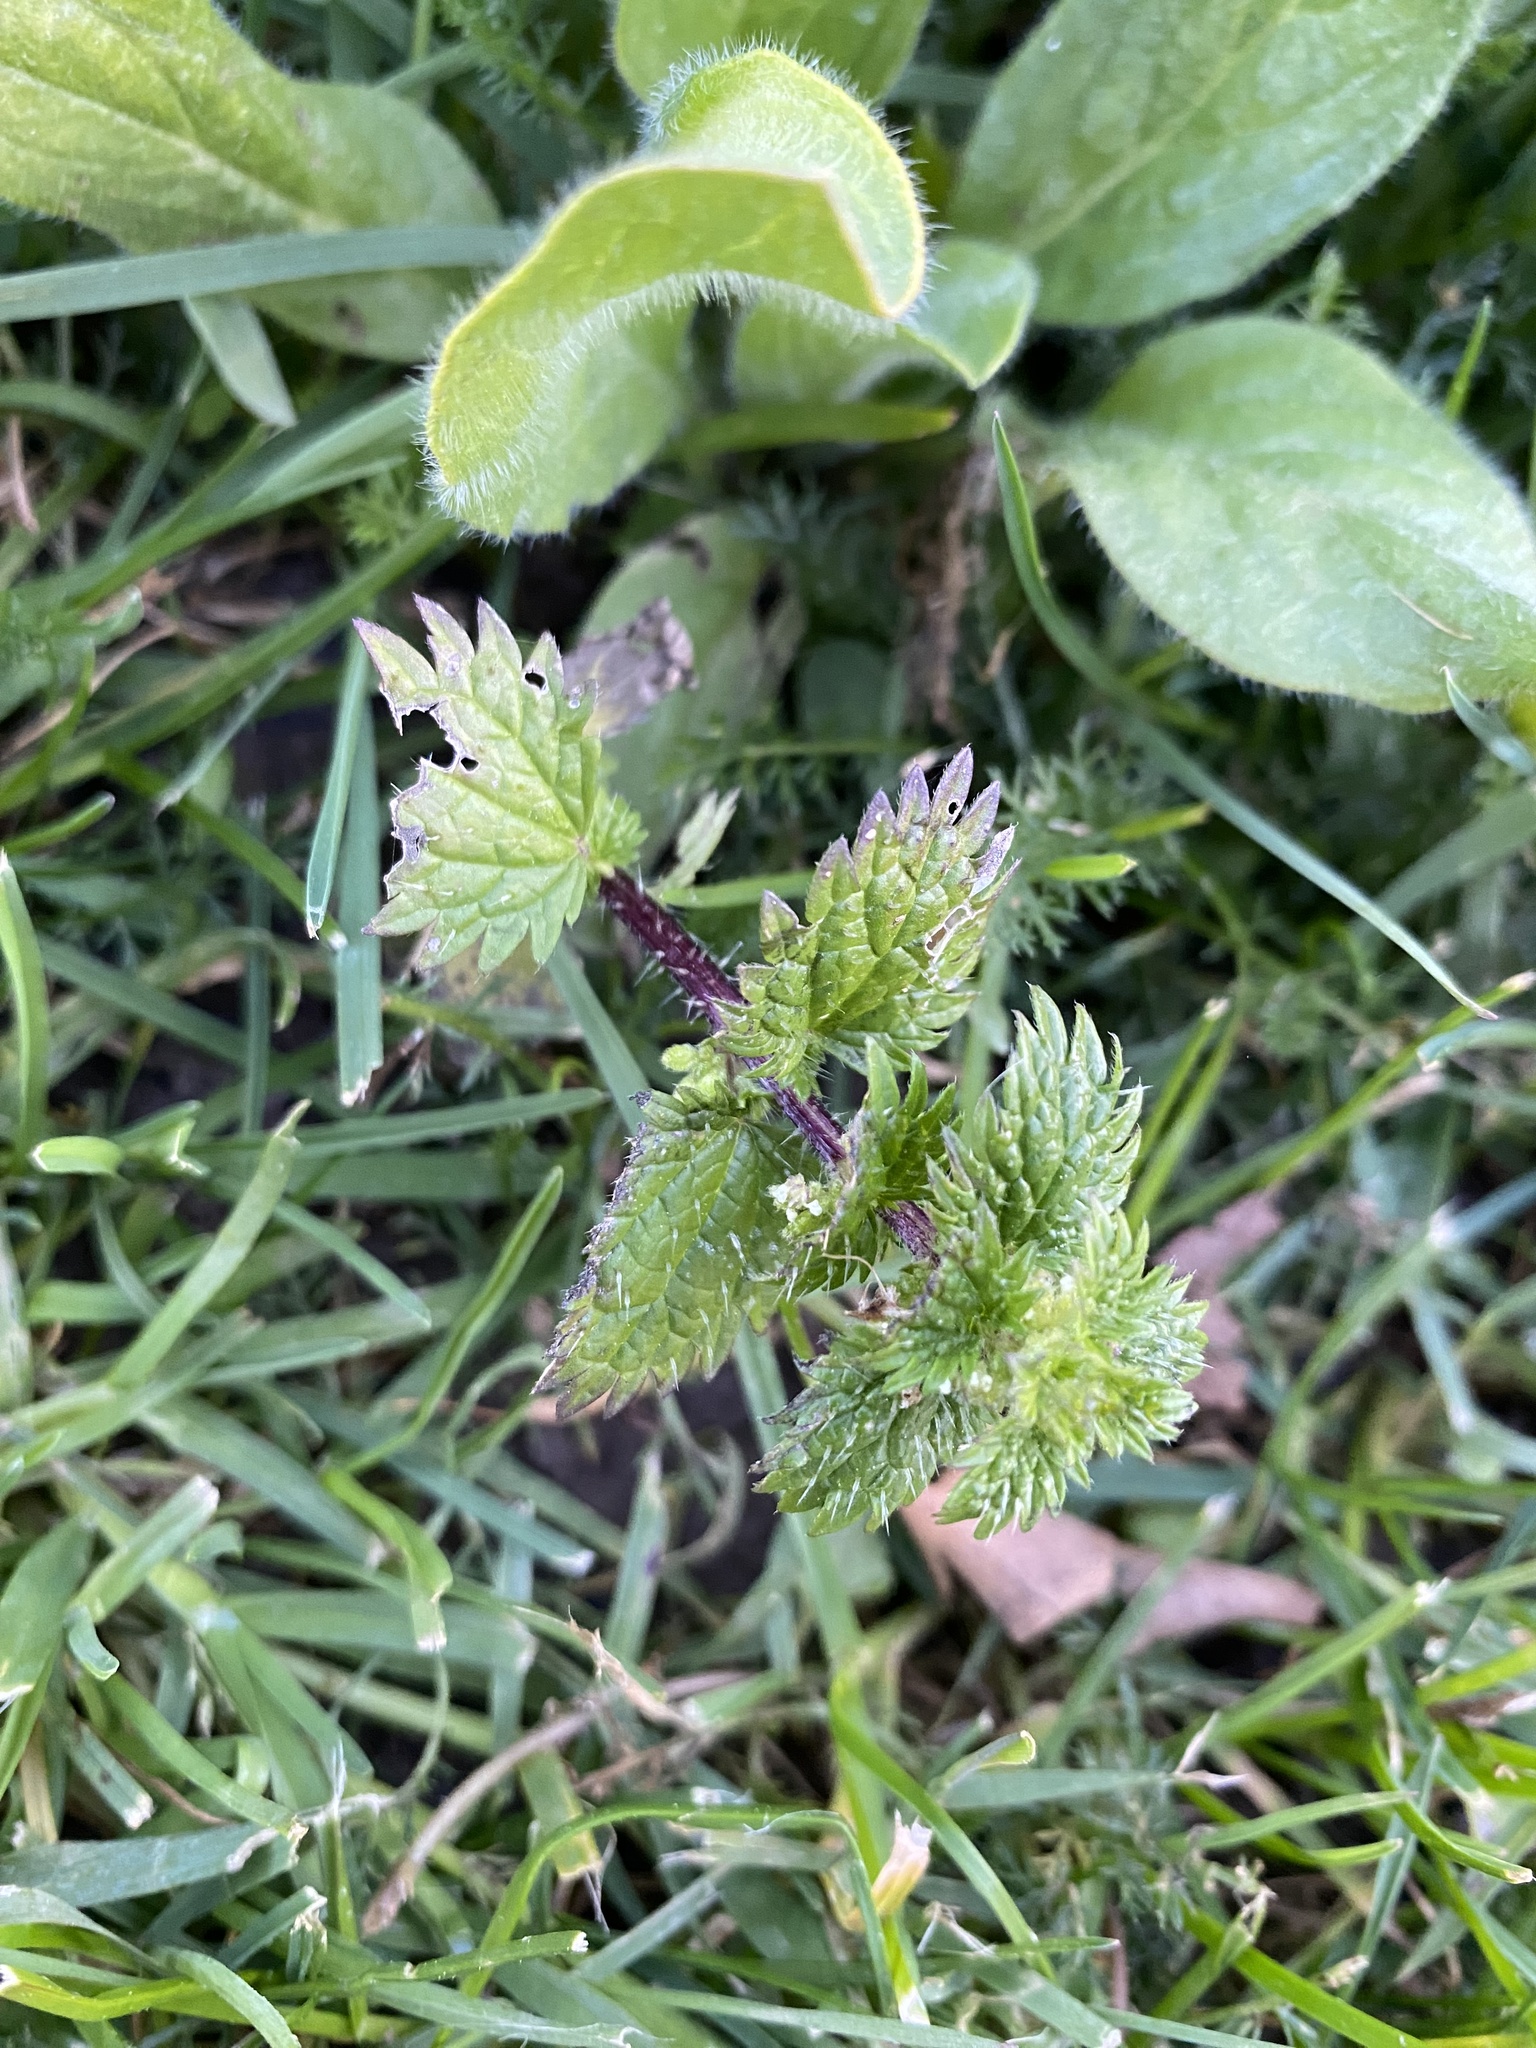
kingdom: Plantae
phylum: Tracheophyta
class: Magnoliopsida
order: Rosales
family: Urticaceae
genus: Urtica
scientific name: Urtica urens
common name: Dwarf nettle
